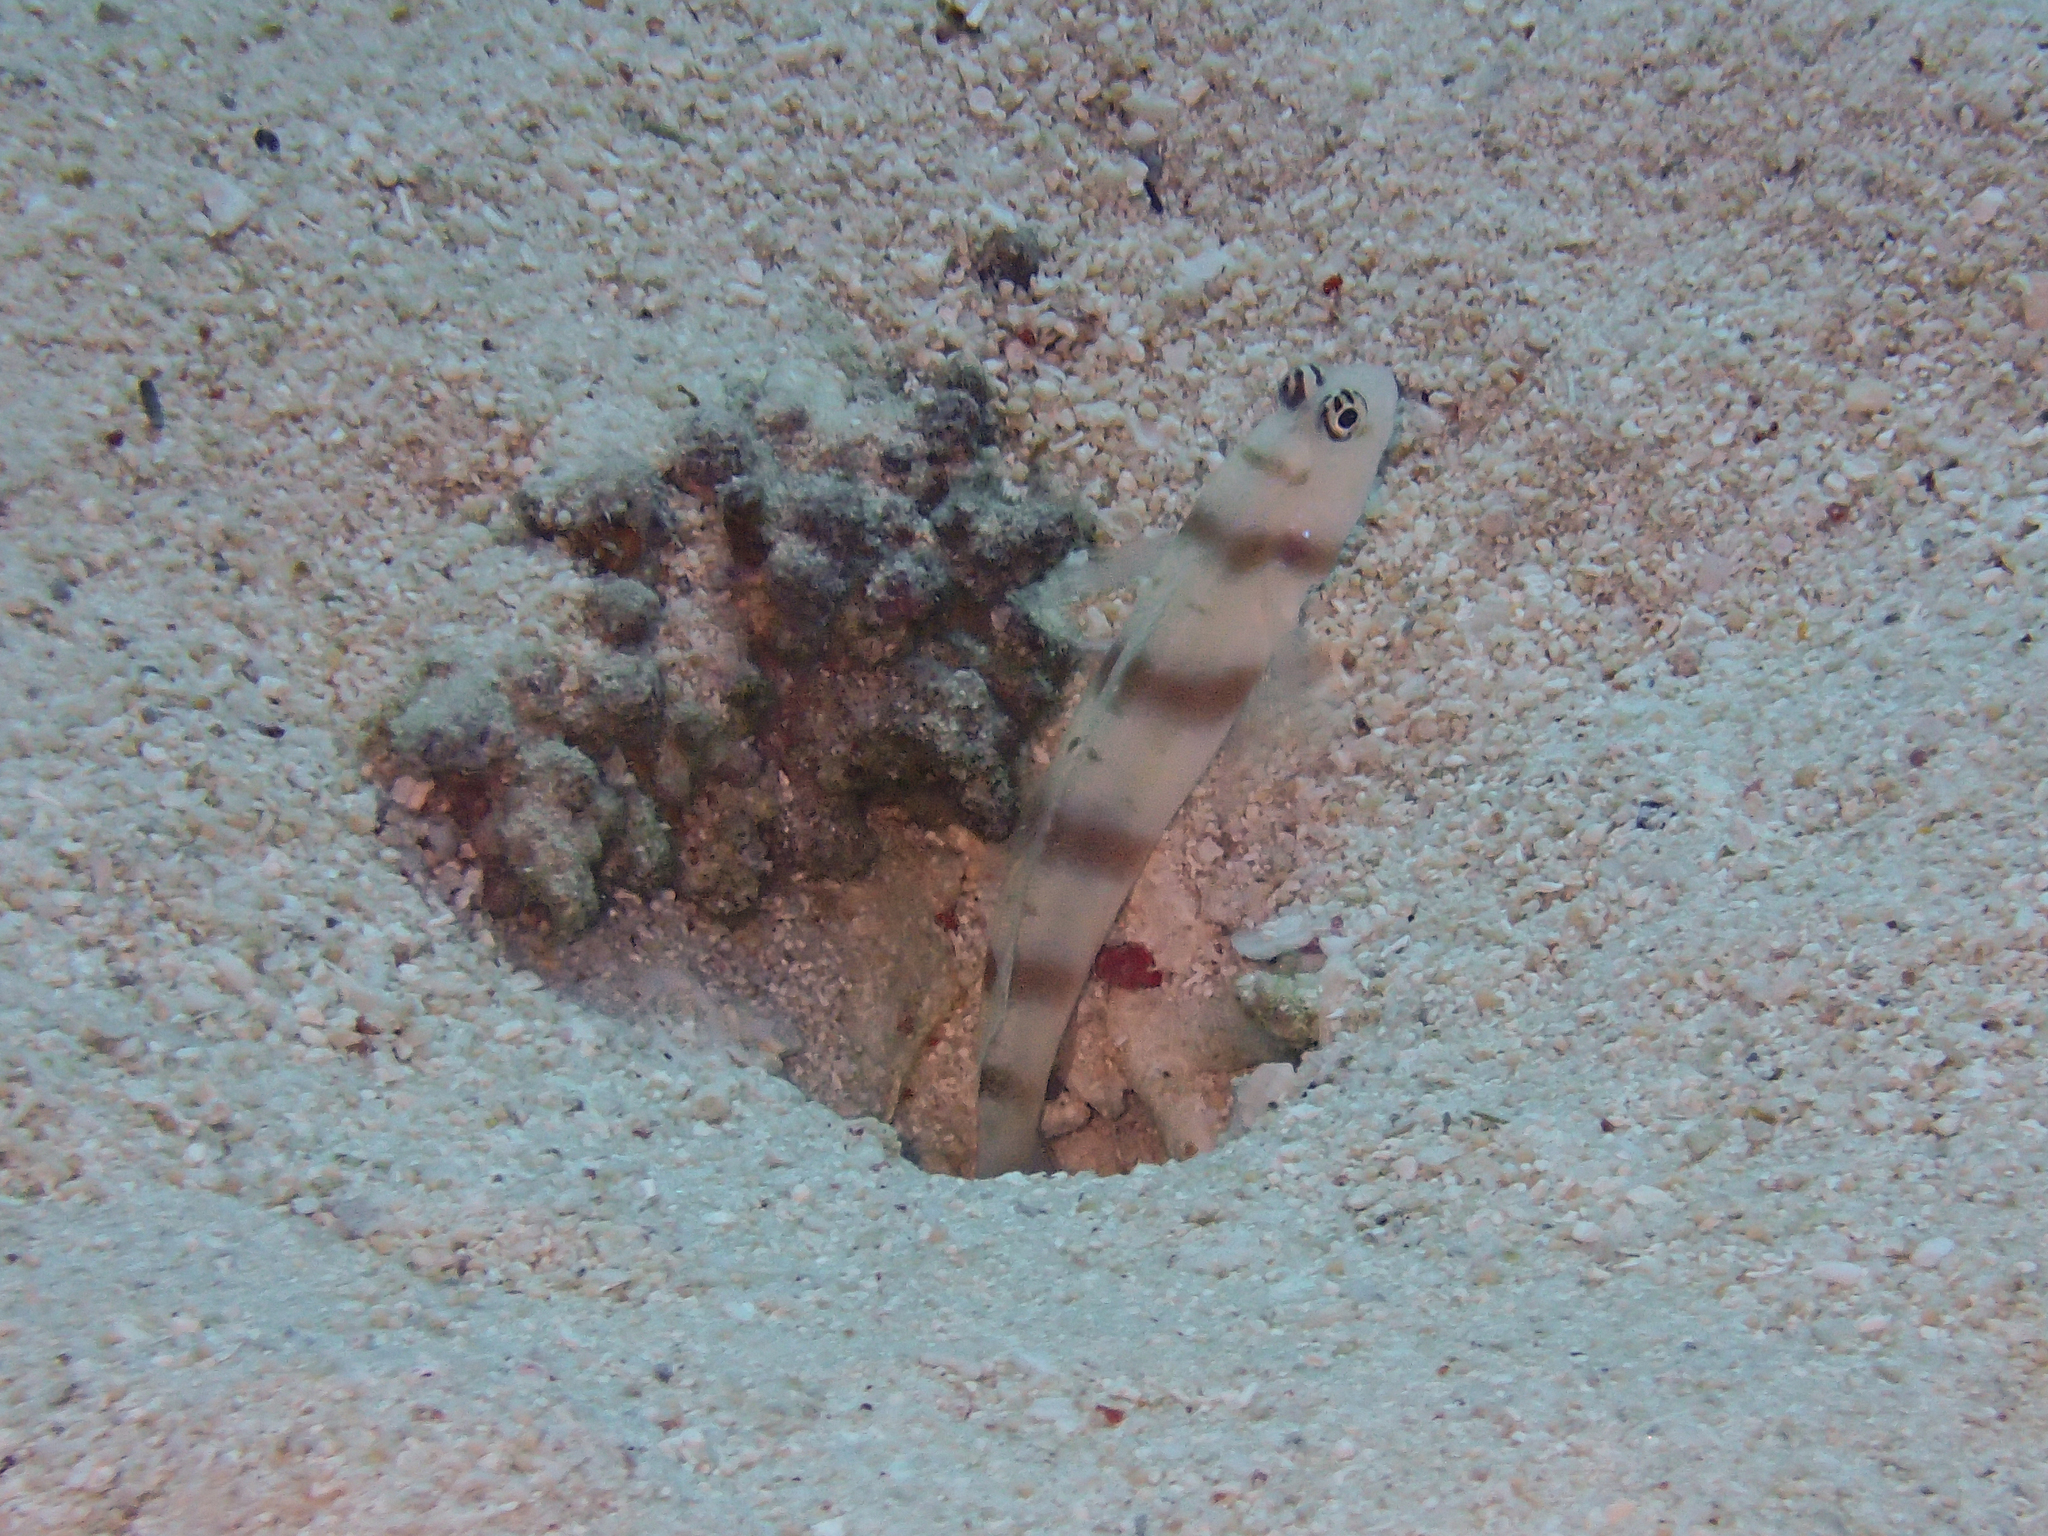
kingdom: Animalia
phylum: Chordata
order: Perciformes
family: Gobiidae
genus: Amblyeleotris
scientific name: Amblyeleotris steinitzi
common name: Steinitz' prawn-goby
